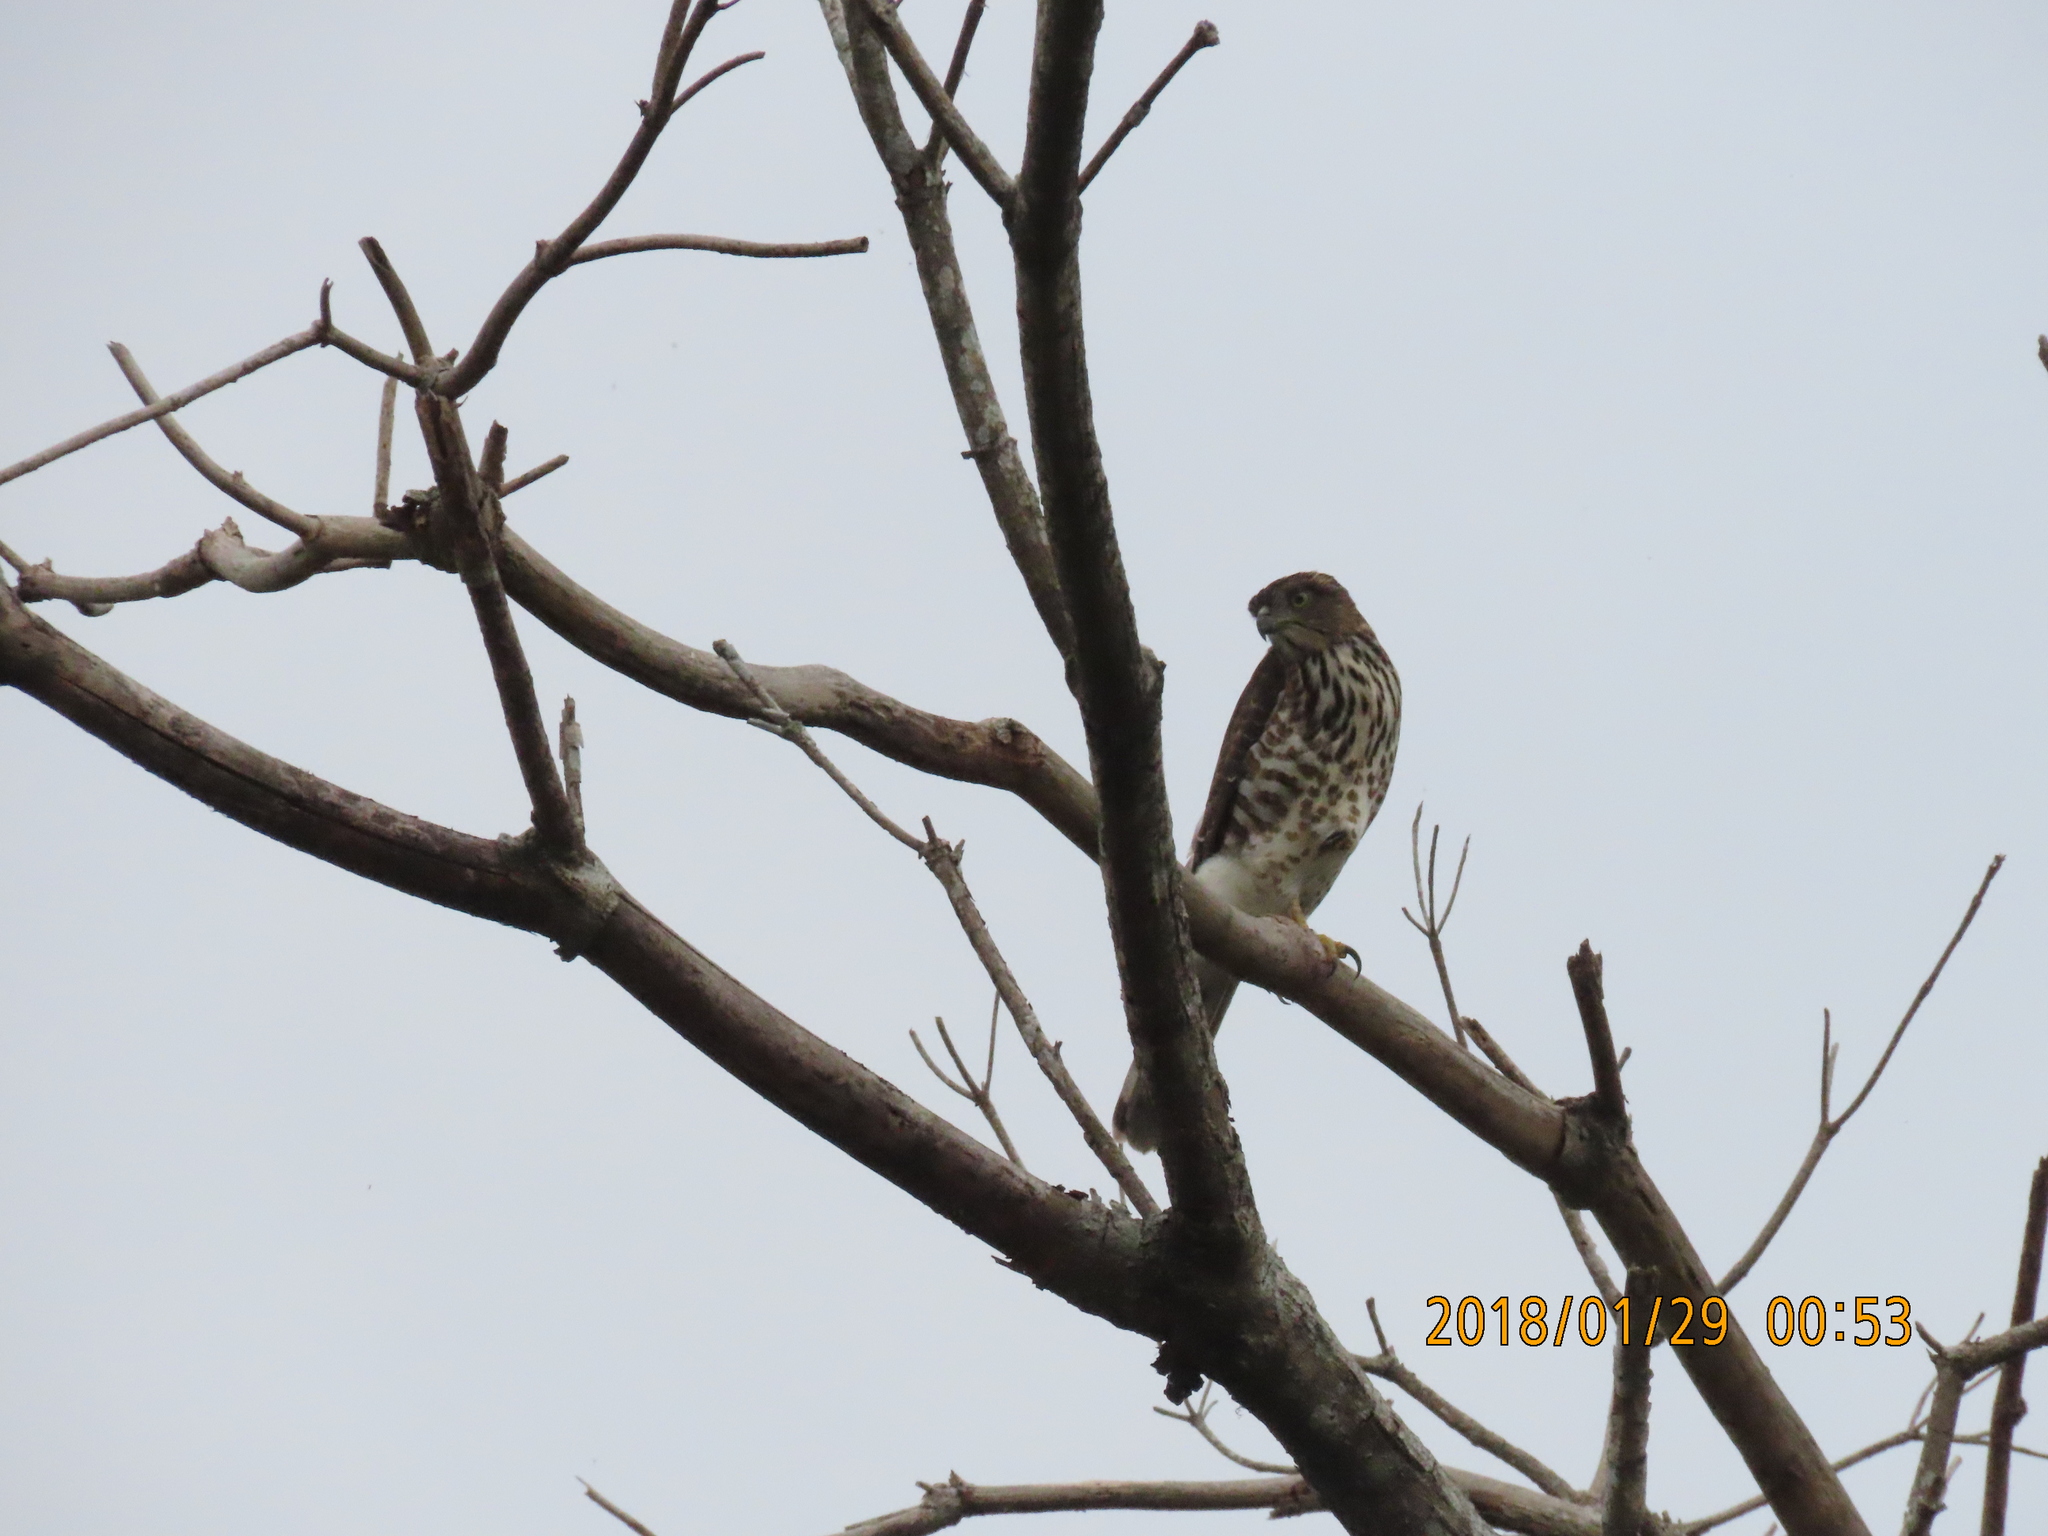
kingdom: Animalia
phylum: Chordata
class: Aves
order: Accipitriformes
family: Accipitridae
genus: Accipiter
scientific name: Accipiter trivirgatus
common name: Crested goshawk
